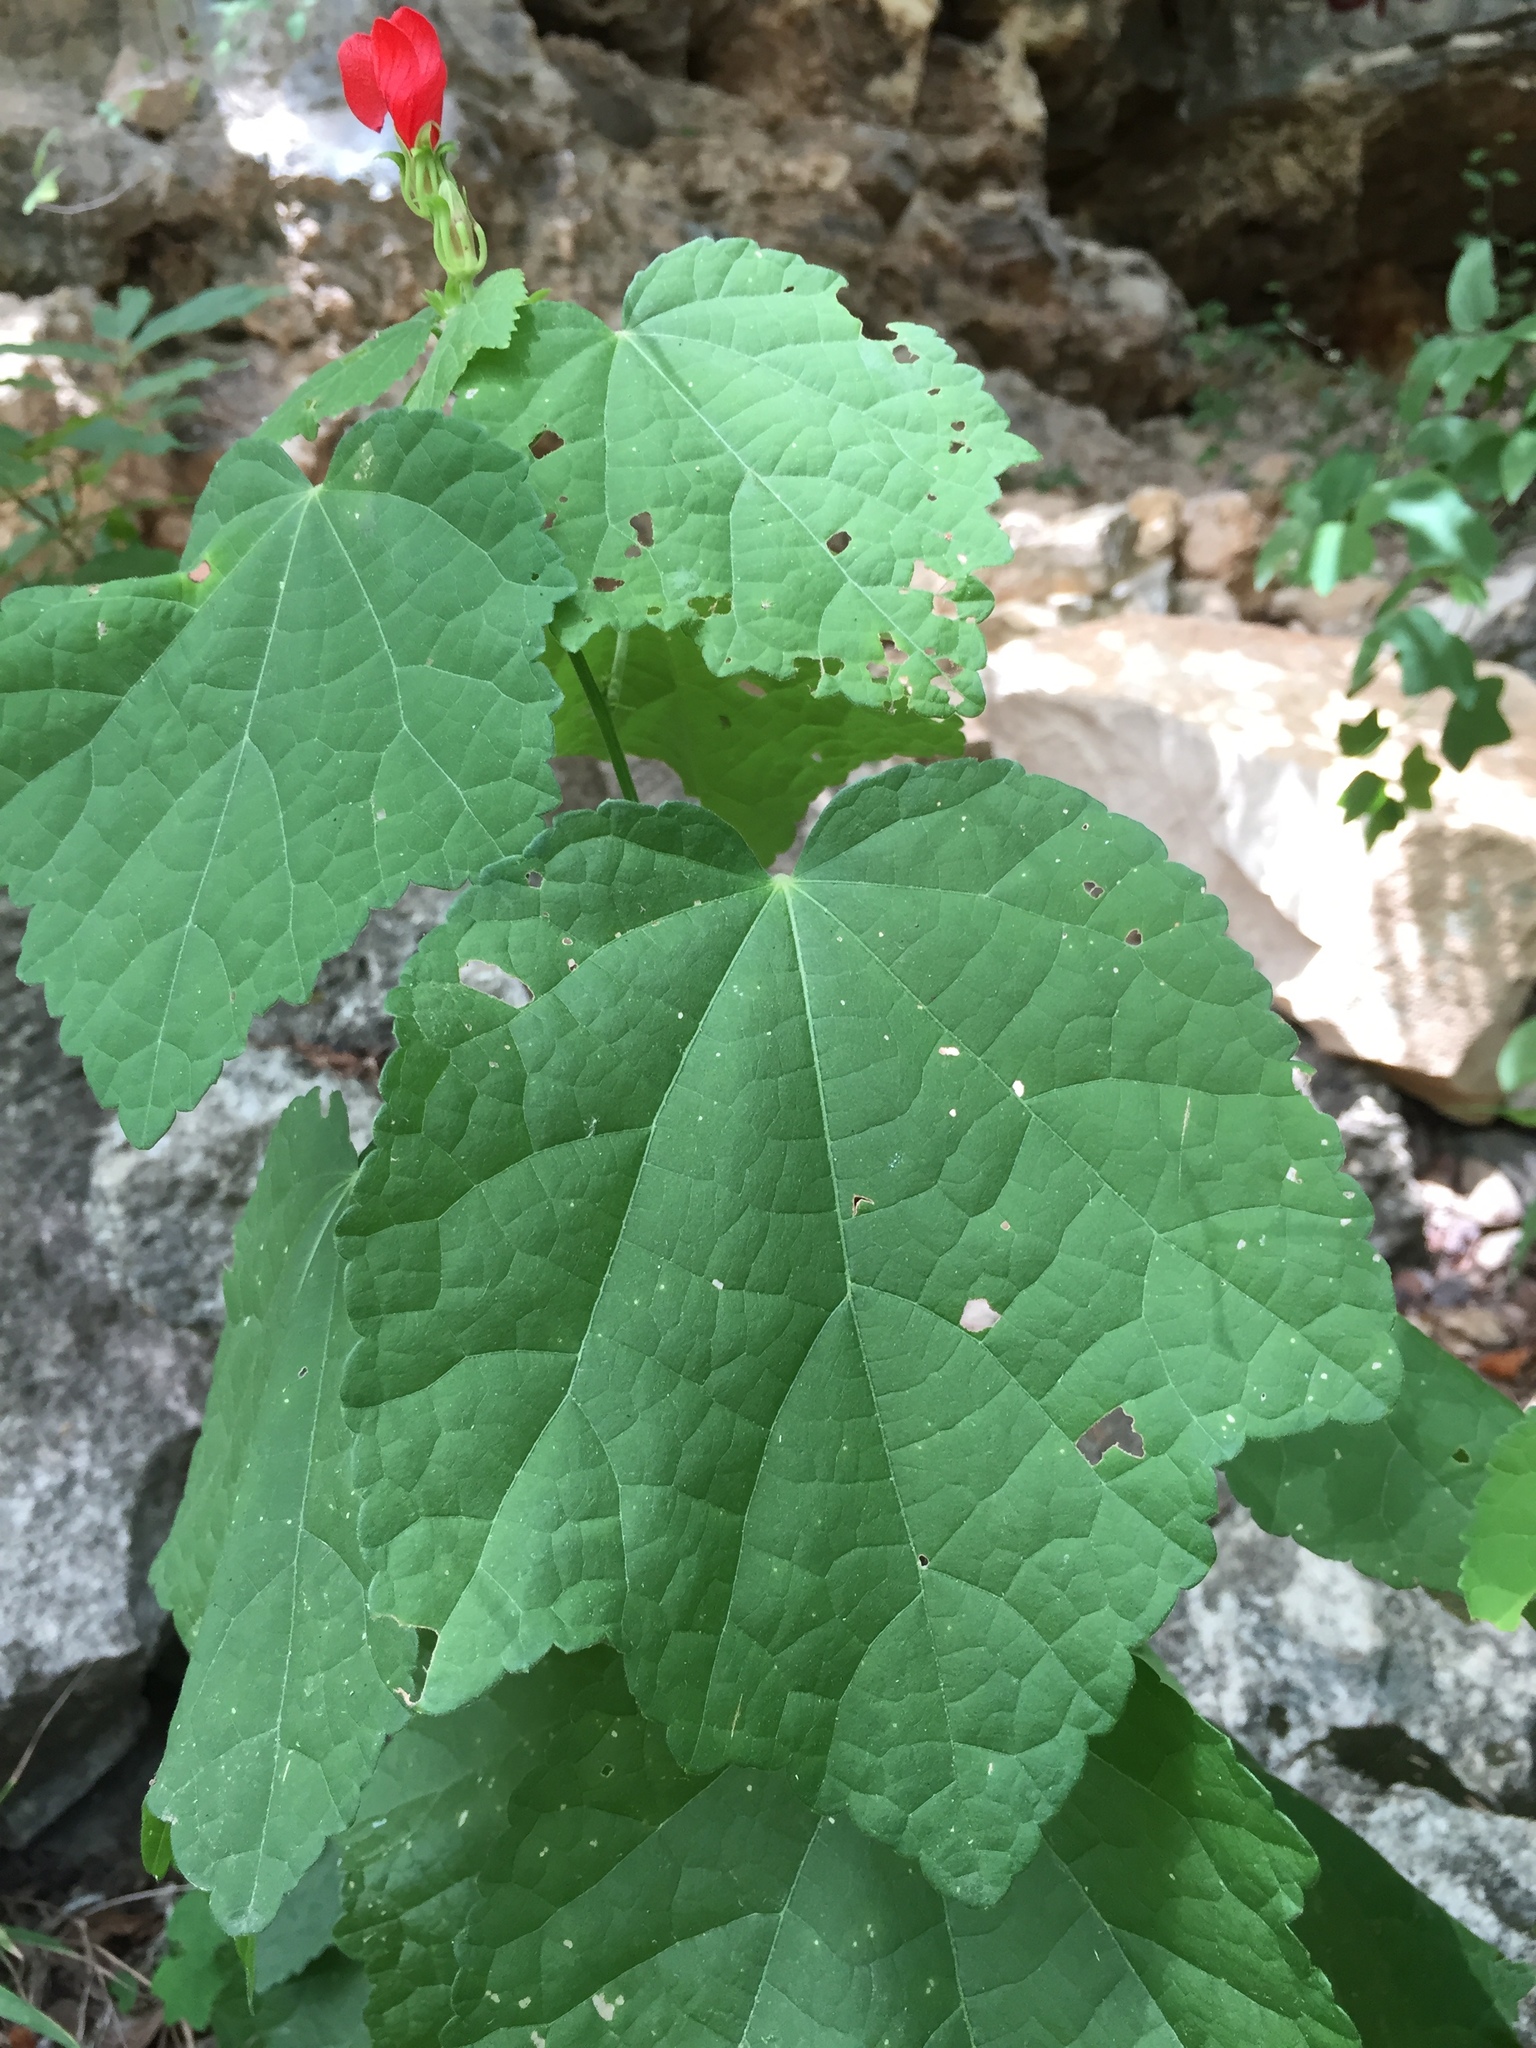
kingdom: Plantae
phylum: Tracheophyta
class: Magnoliopsida
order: Malvales
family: Malvaceae
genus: Malvaviscus
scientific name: Malvaviscus arboreus
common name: Wax mallow
